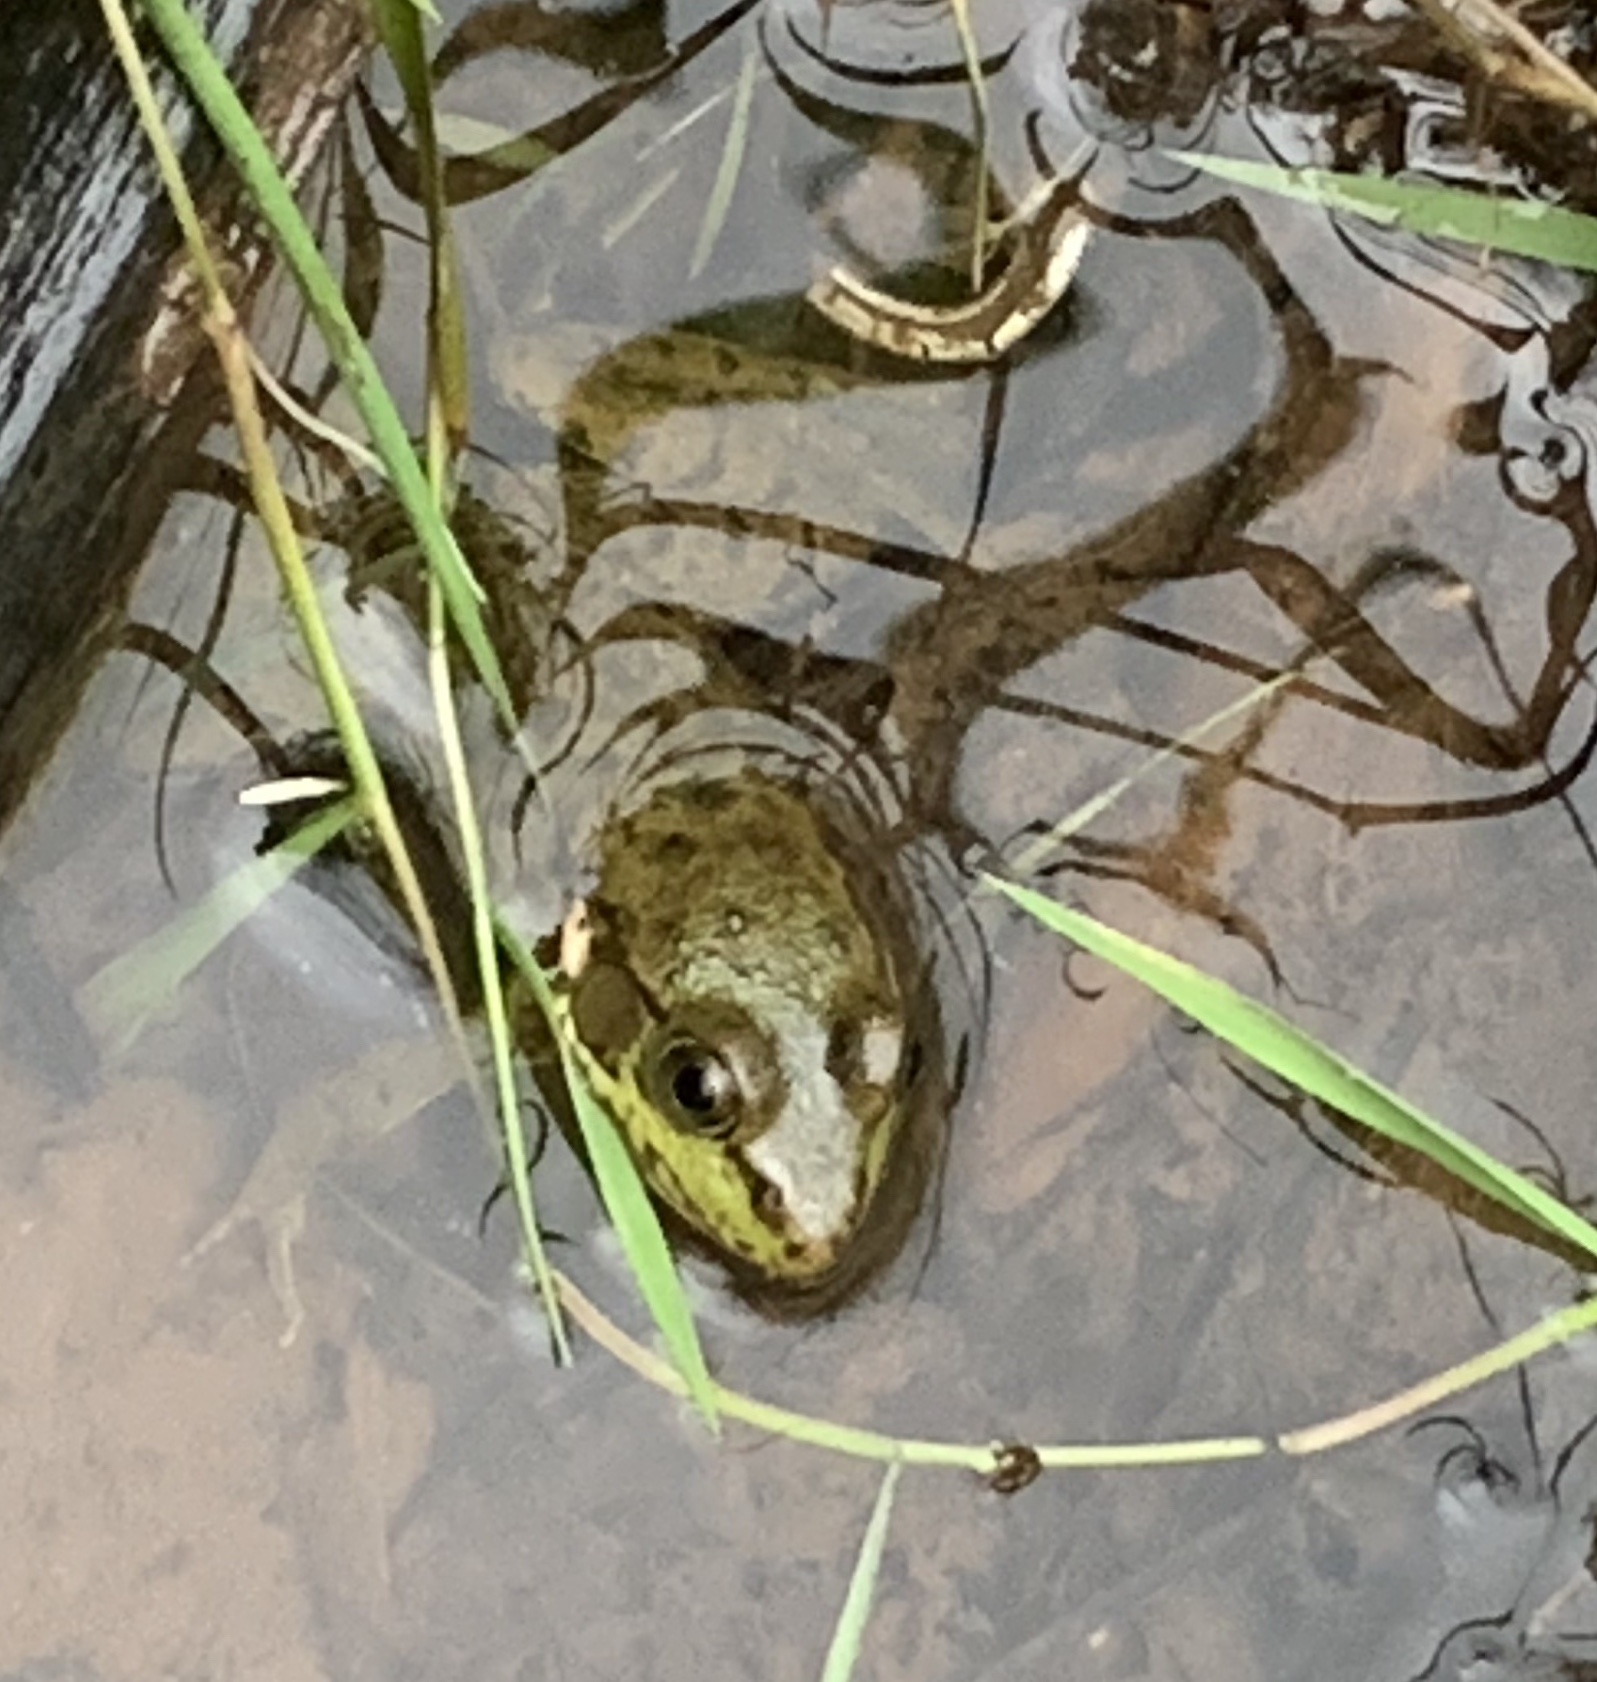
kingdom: Animalia
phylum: Chordata
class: Amphibia
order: Anura
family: Ranidae
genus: Lithobates
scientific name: Lithobates clamitans
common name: Green frog
